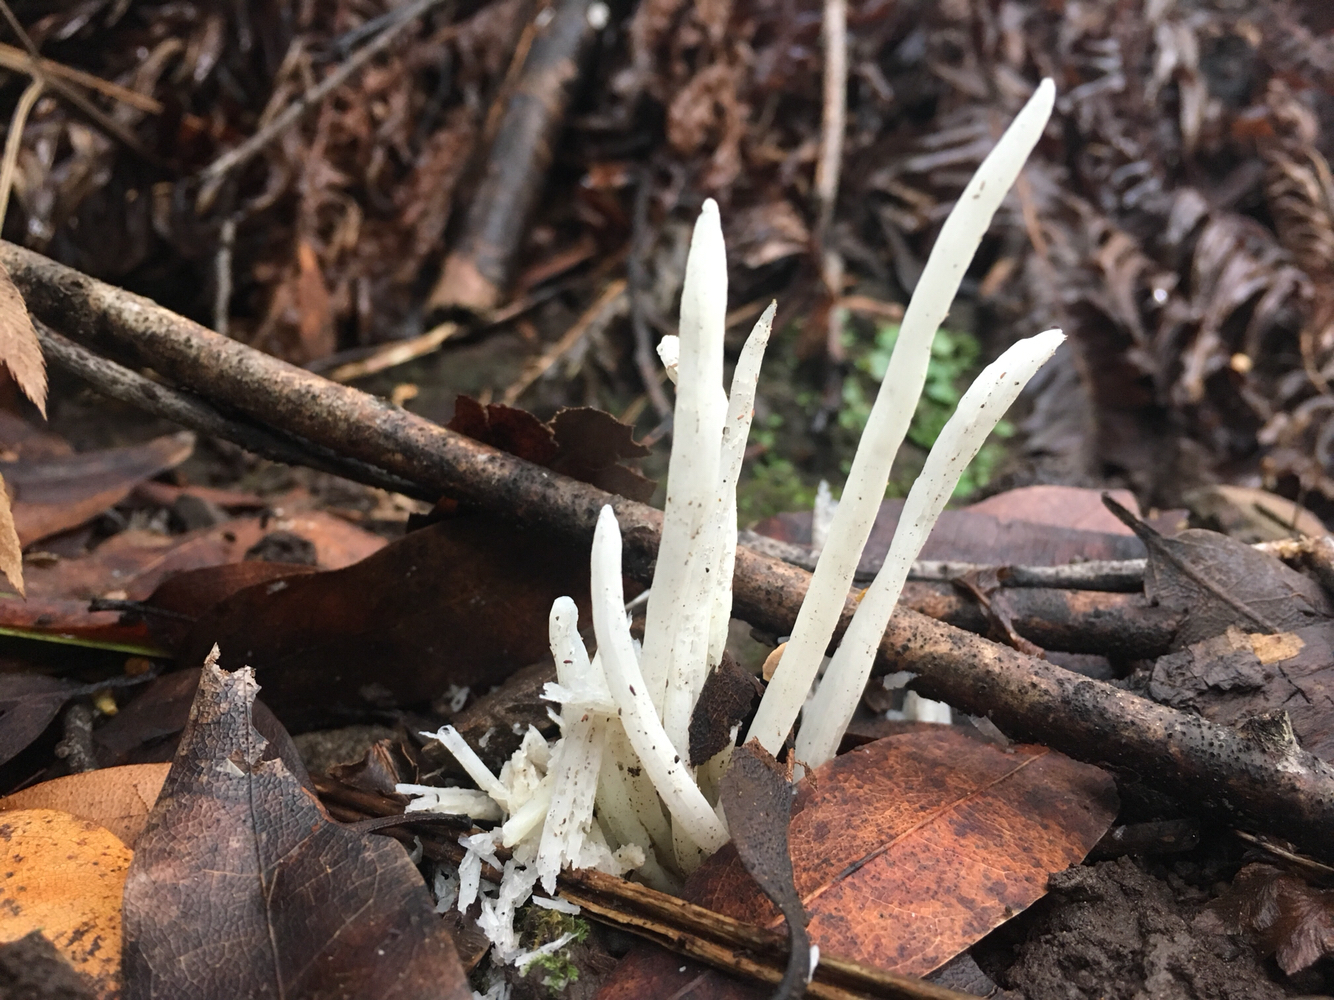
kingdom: Fungi
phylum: Basidiomycota
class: Agaricomycetes
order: Agaricales
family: Clavariaceae
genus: Clavaria
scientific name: Clavaria fragilis
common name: White spindles
